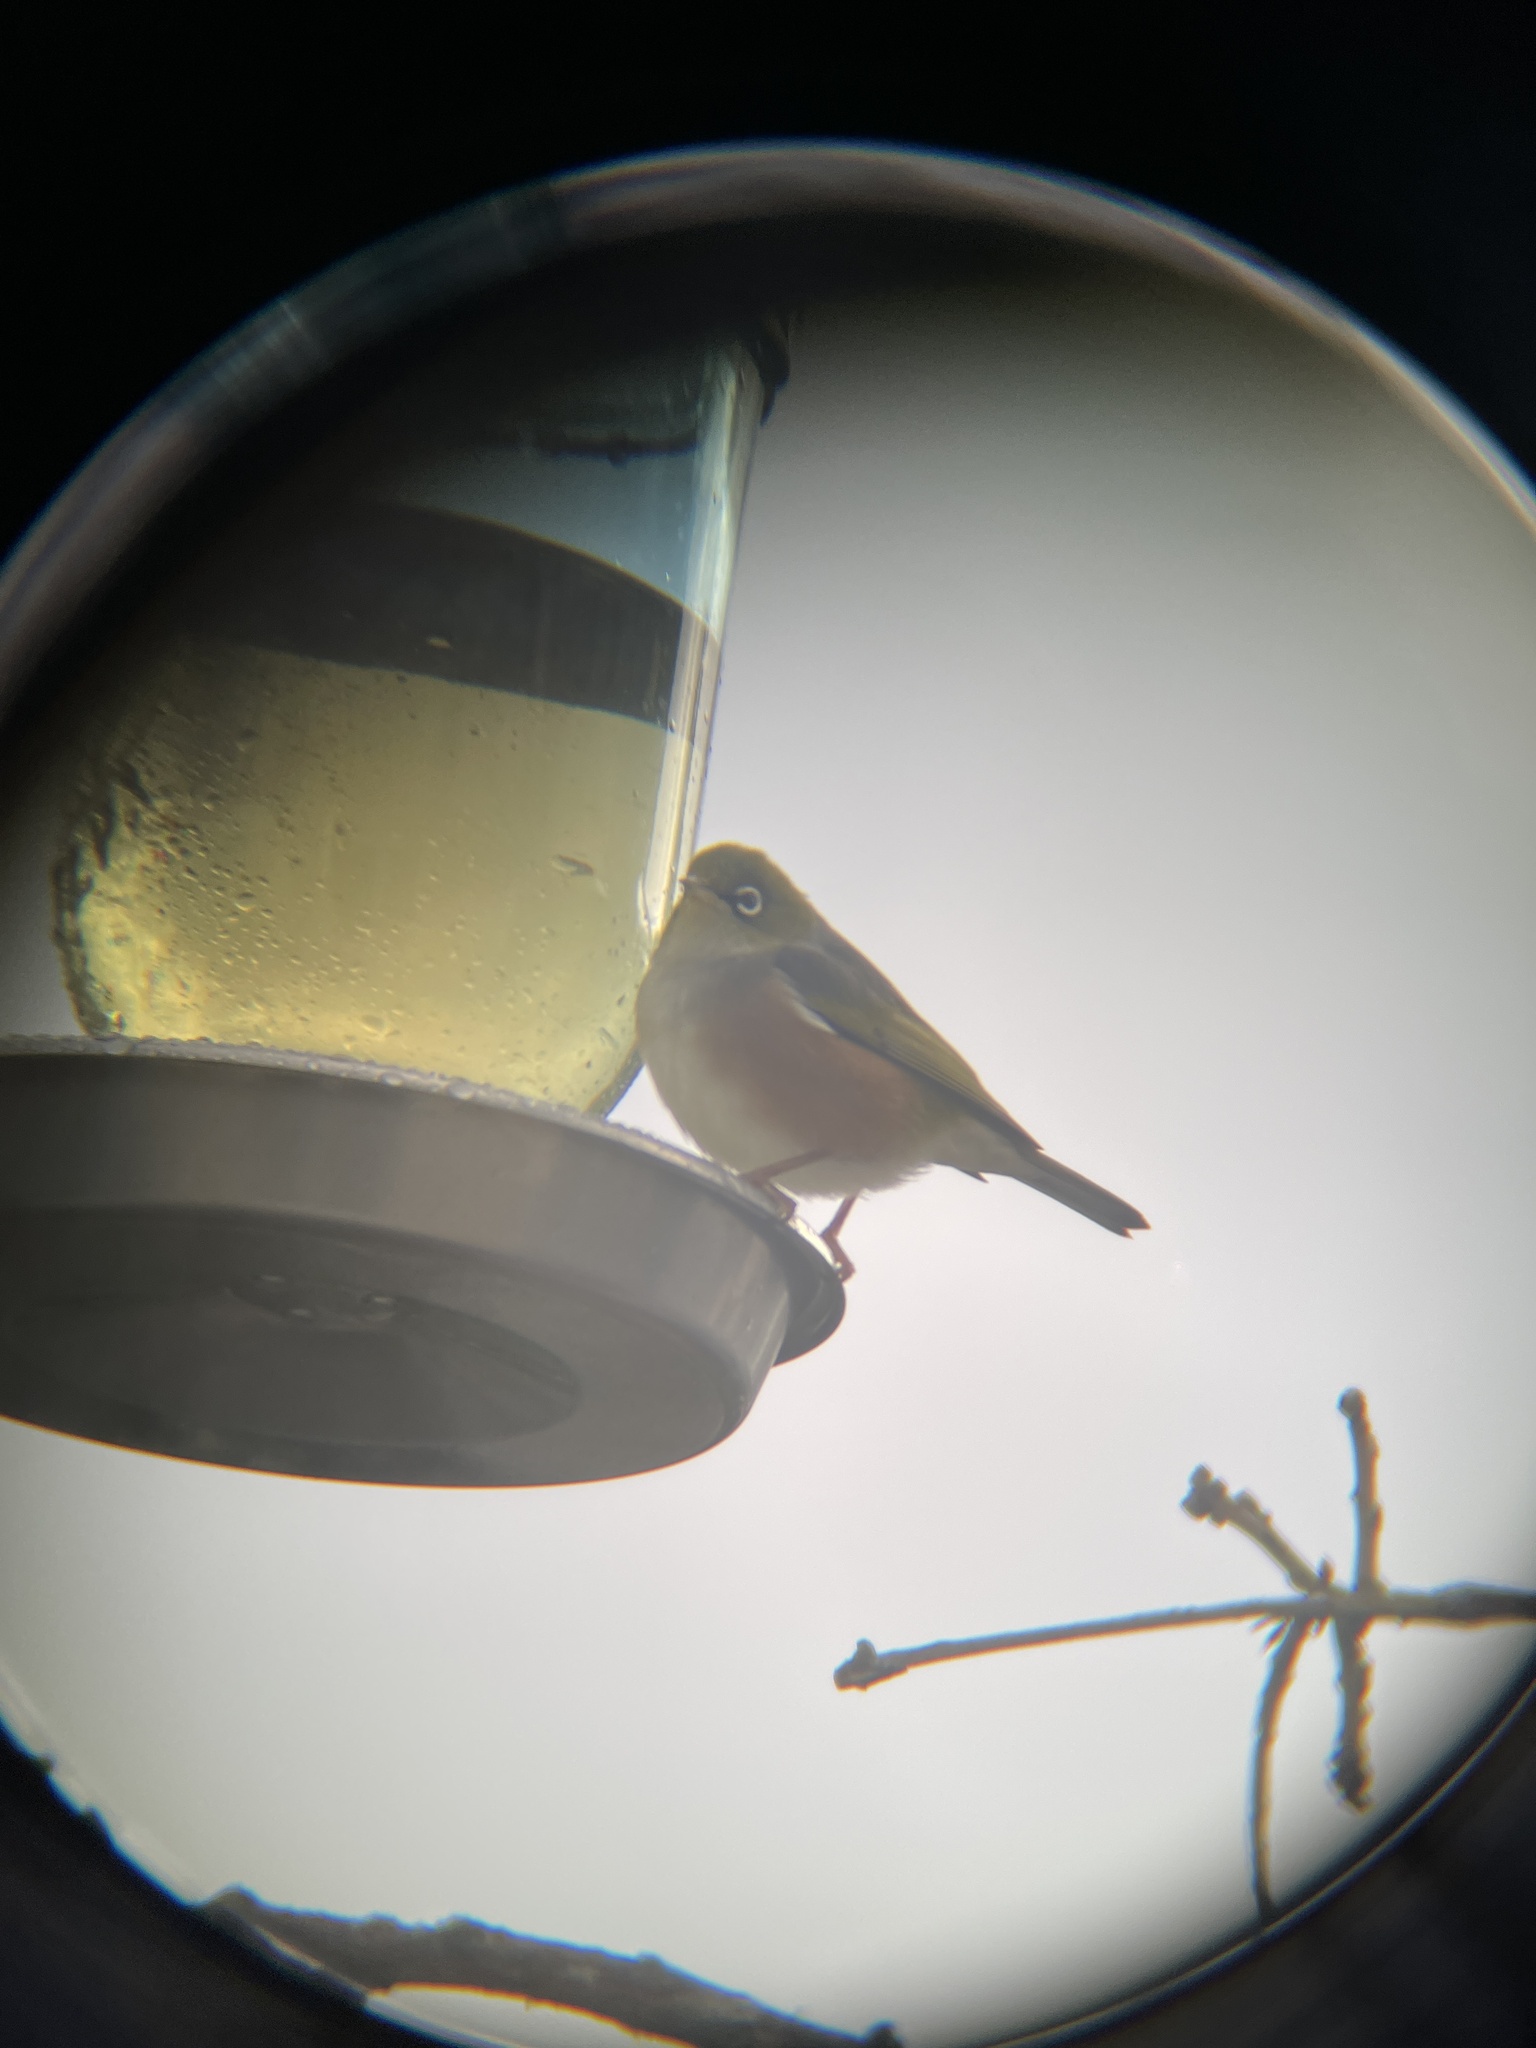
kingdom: Animalia
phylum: Chordata
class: Aves
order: Passeriformes
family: Zosteropidae
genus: Zosterops
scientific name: Zosterops lateralis
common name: Silvereye
